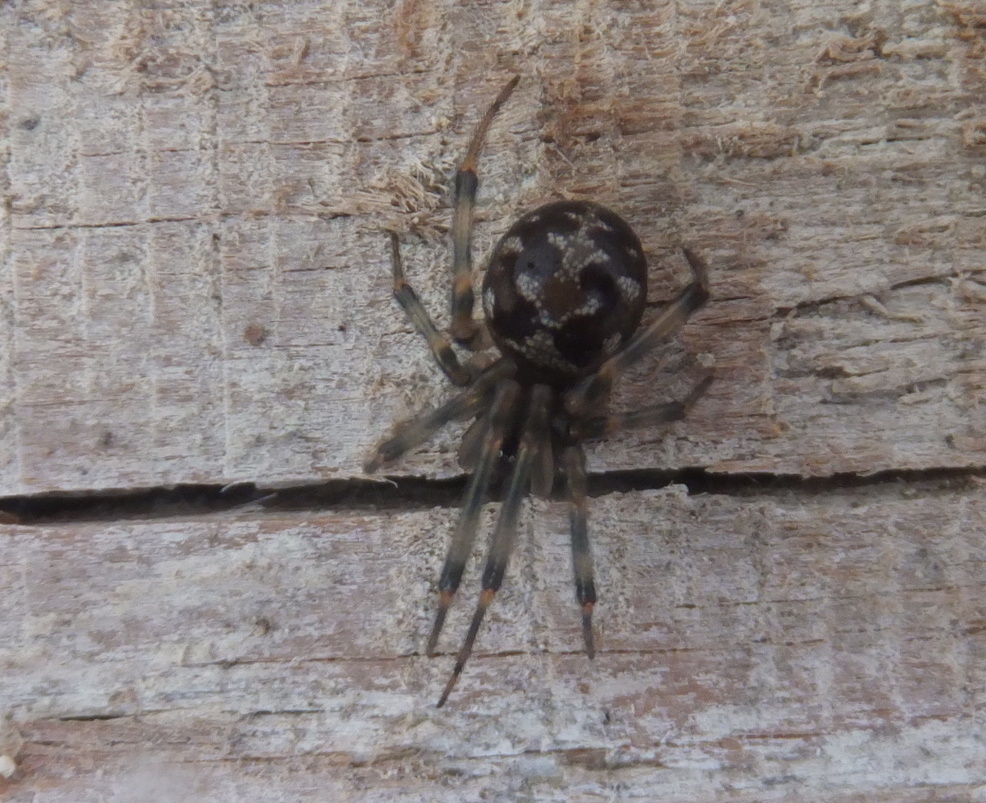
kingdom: Animalia
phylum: Arthropoda
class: Arachnida
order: Araneae
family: Theridiidae
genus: Steatoda
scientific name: Steatoda triangulosa
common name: Triangulate bud spider
